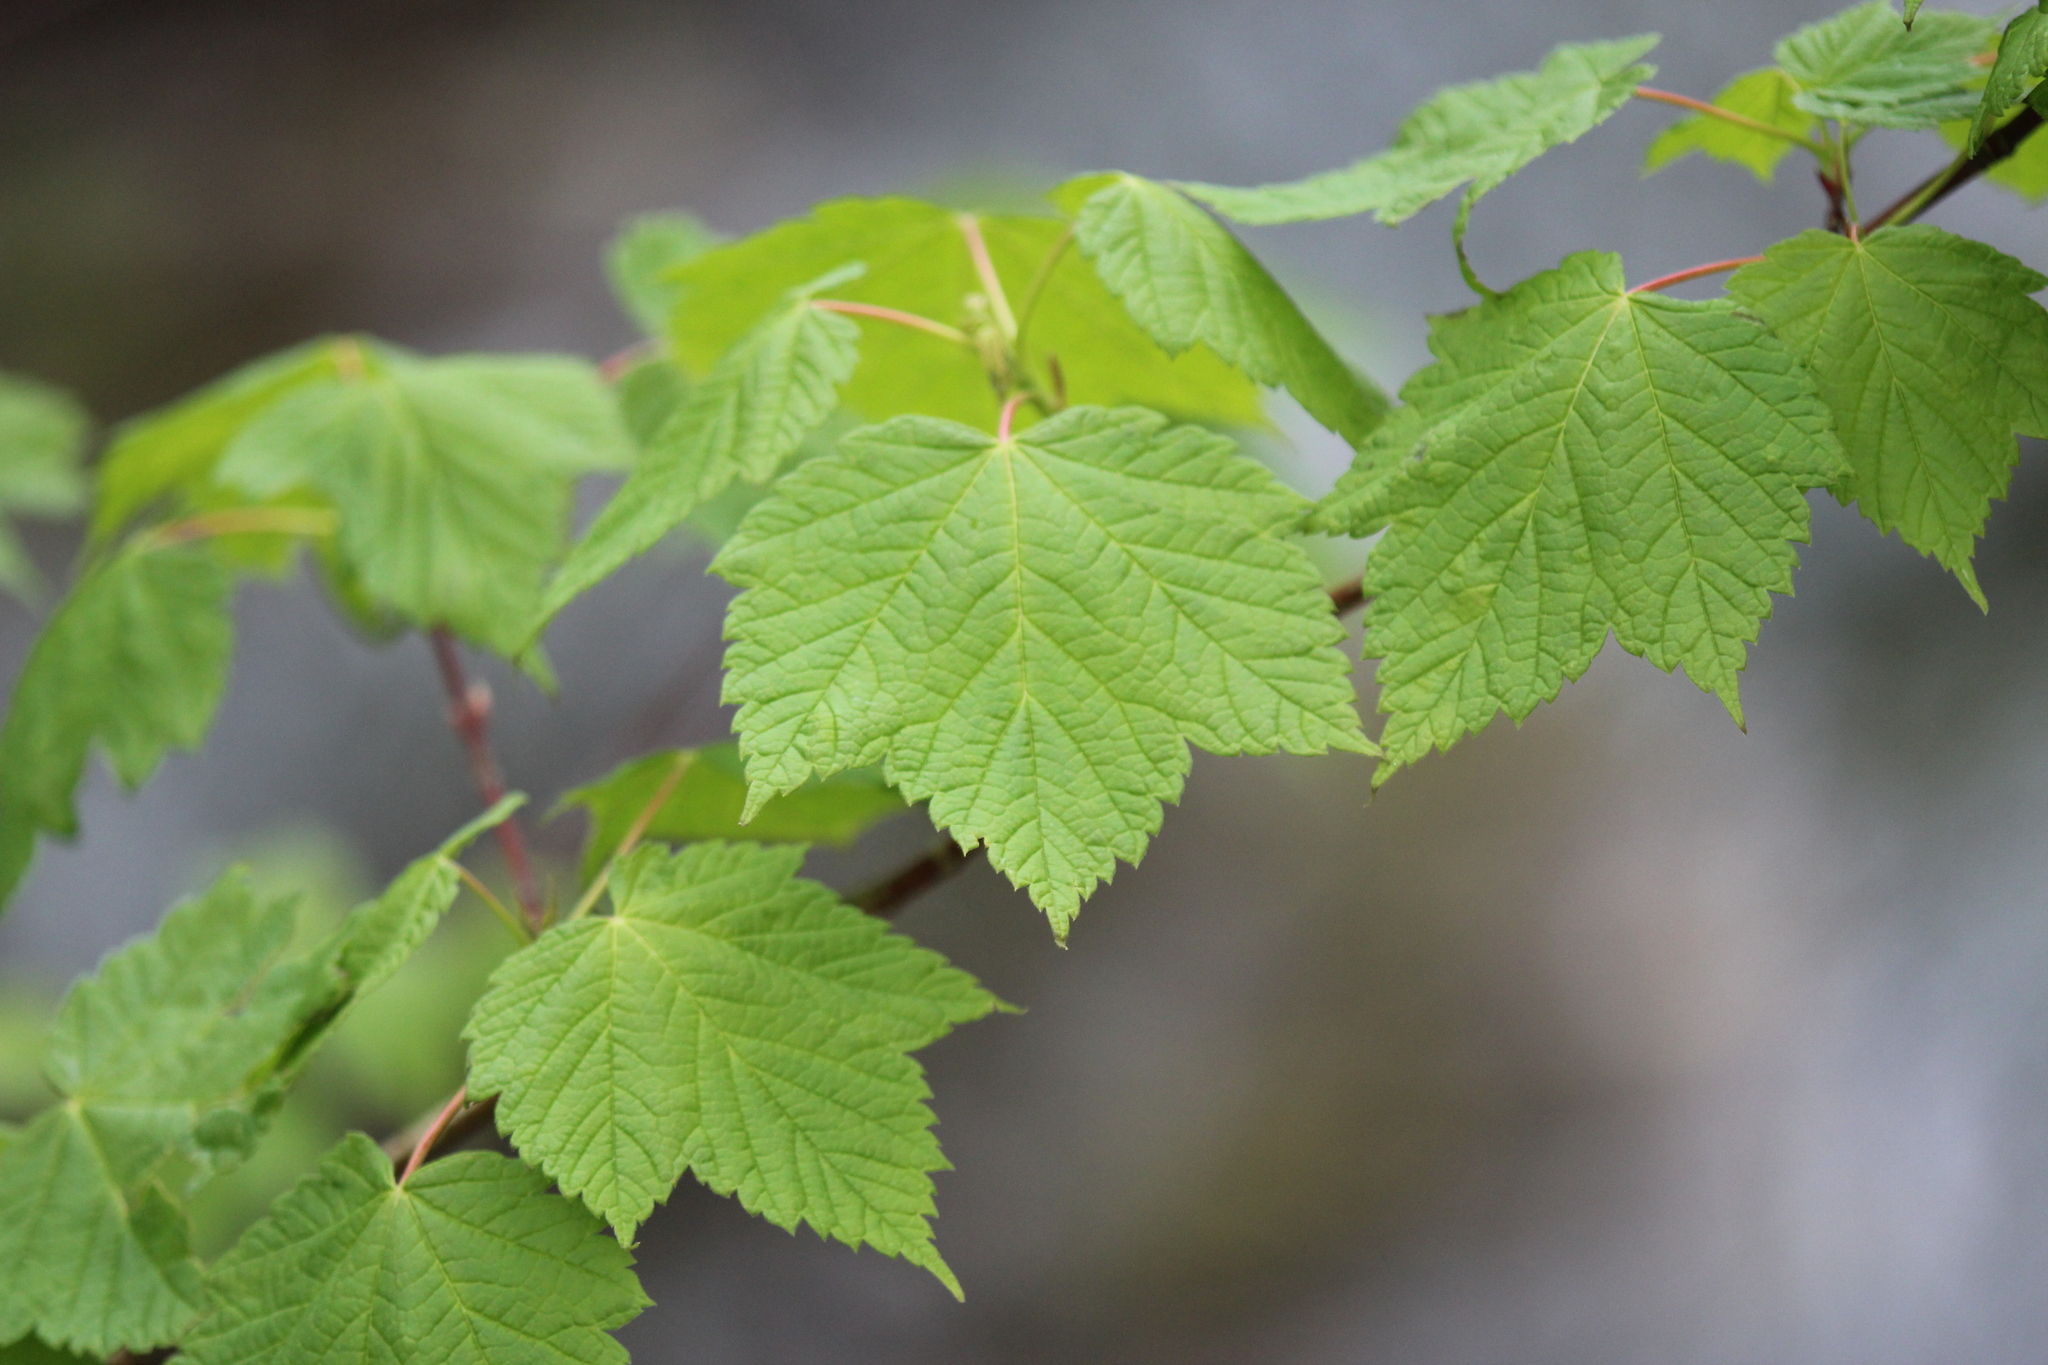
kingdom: Plantae
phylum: Tracheophyta
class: Magnoliopsida
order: Sapindales
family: Sapindaceae
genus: Acer
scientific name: Acer spicatum
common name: Mountain maple
